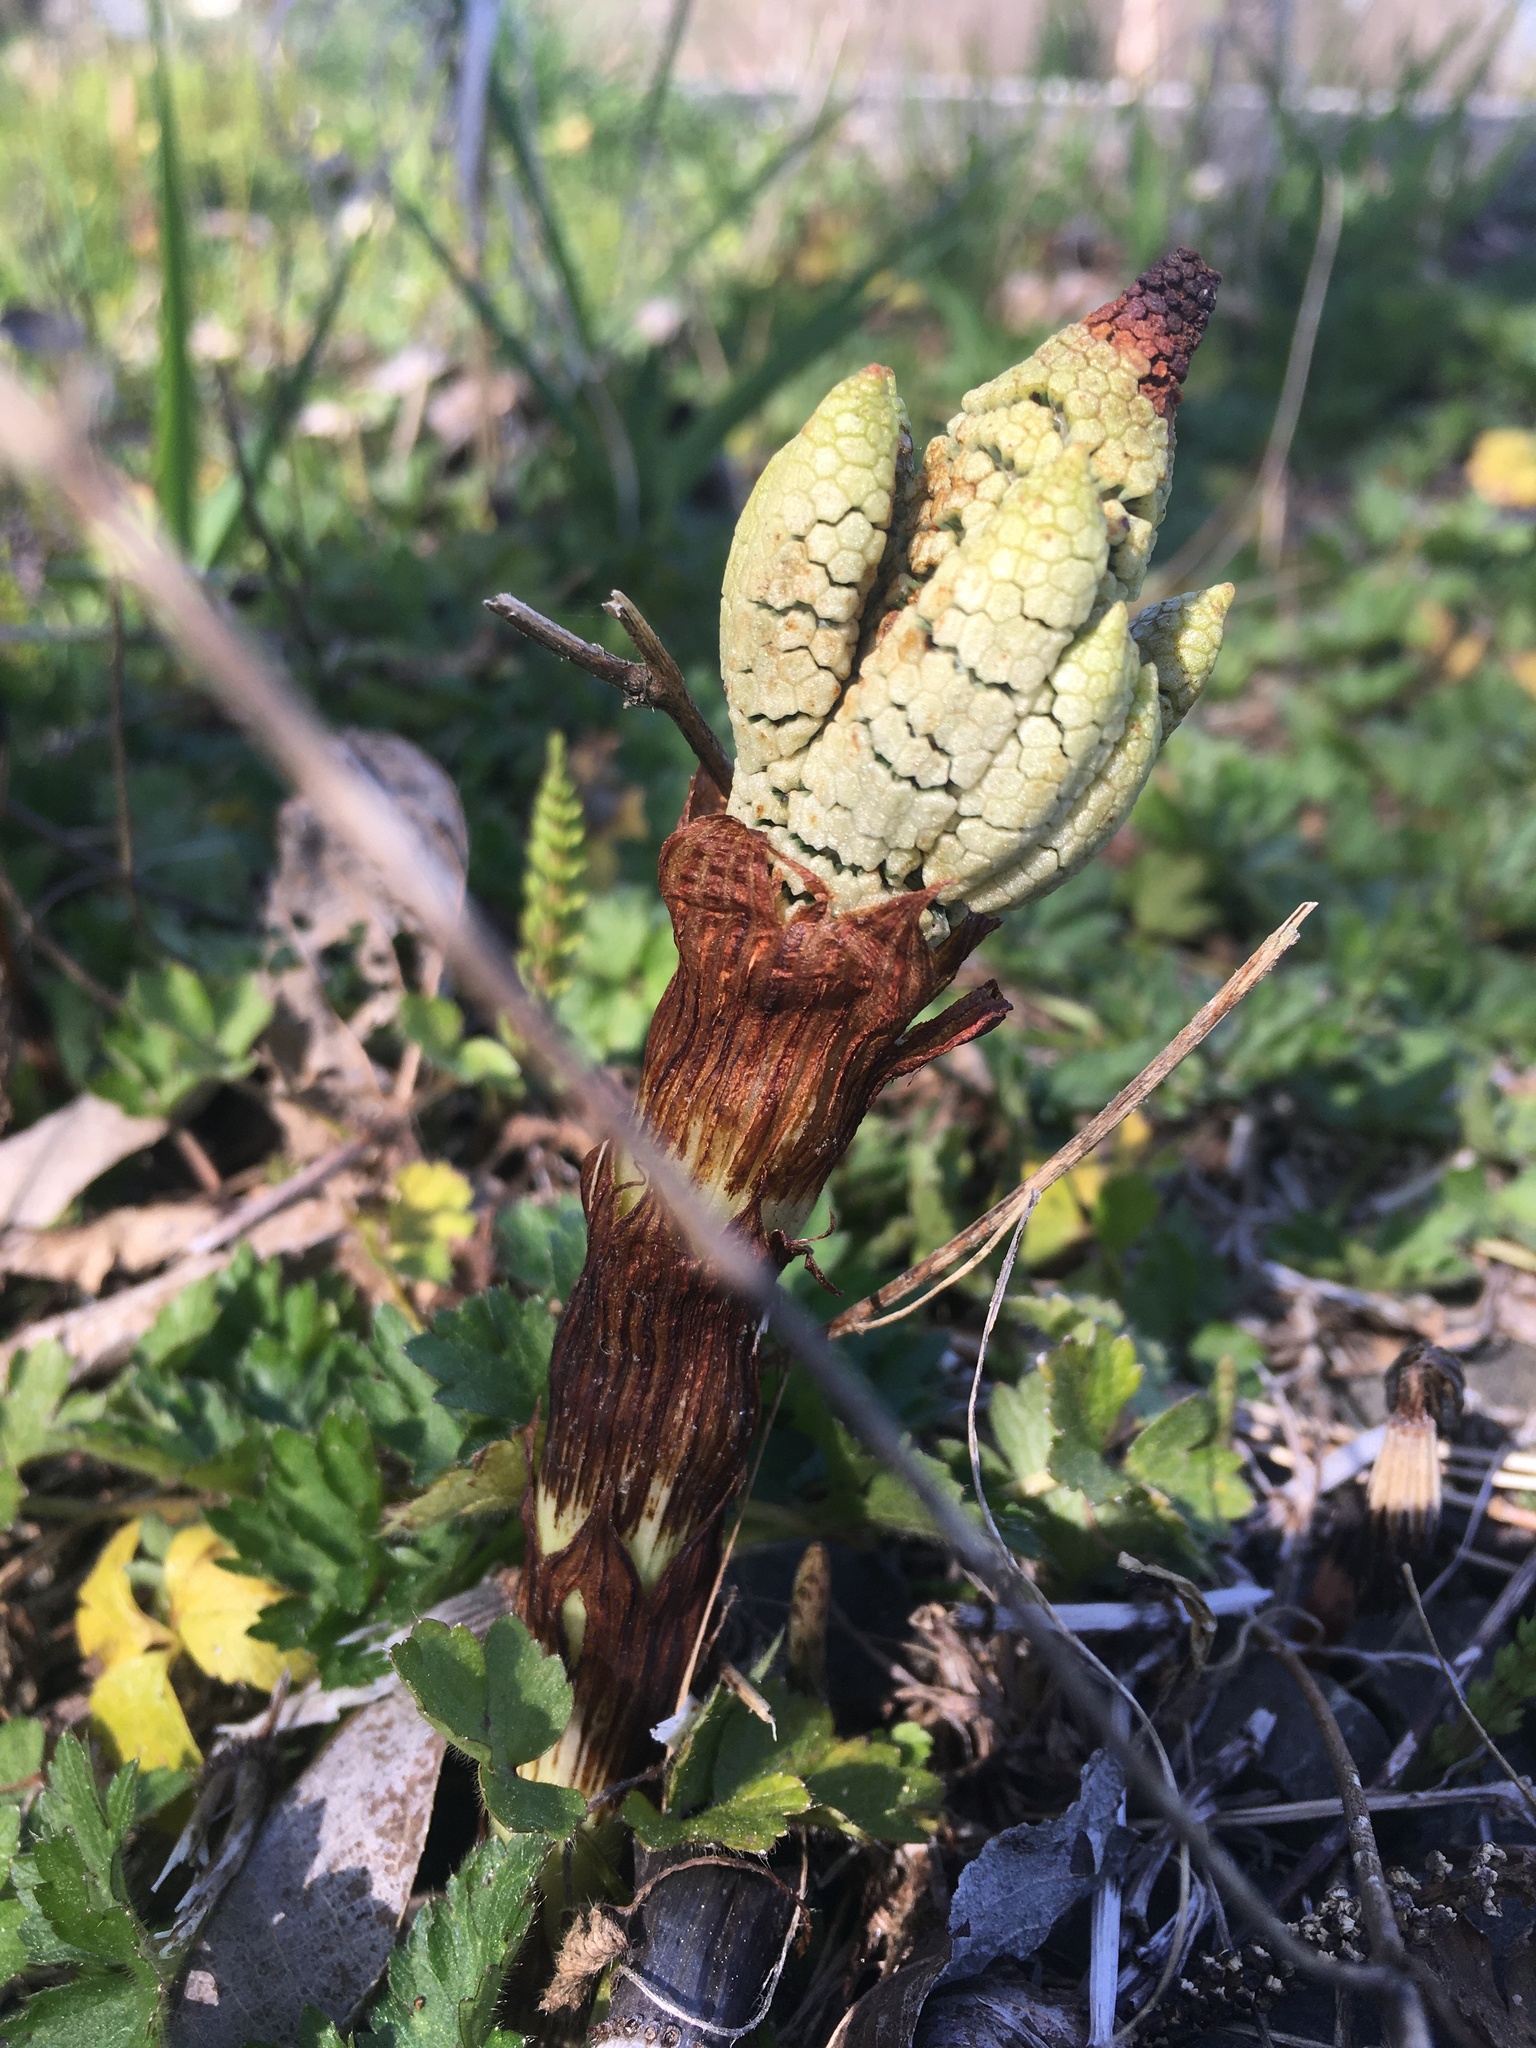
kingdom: Plantae
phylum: Tracheophyta
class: Polypodiopsida
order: Equisetales
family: Equisetaceae
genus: Equisetum
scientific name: Equisetum braunii
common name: Braun's horsetail
